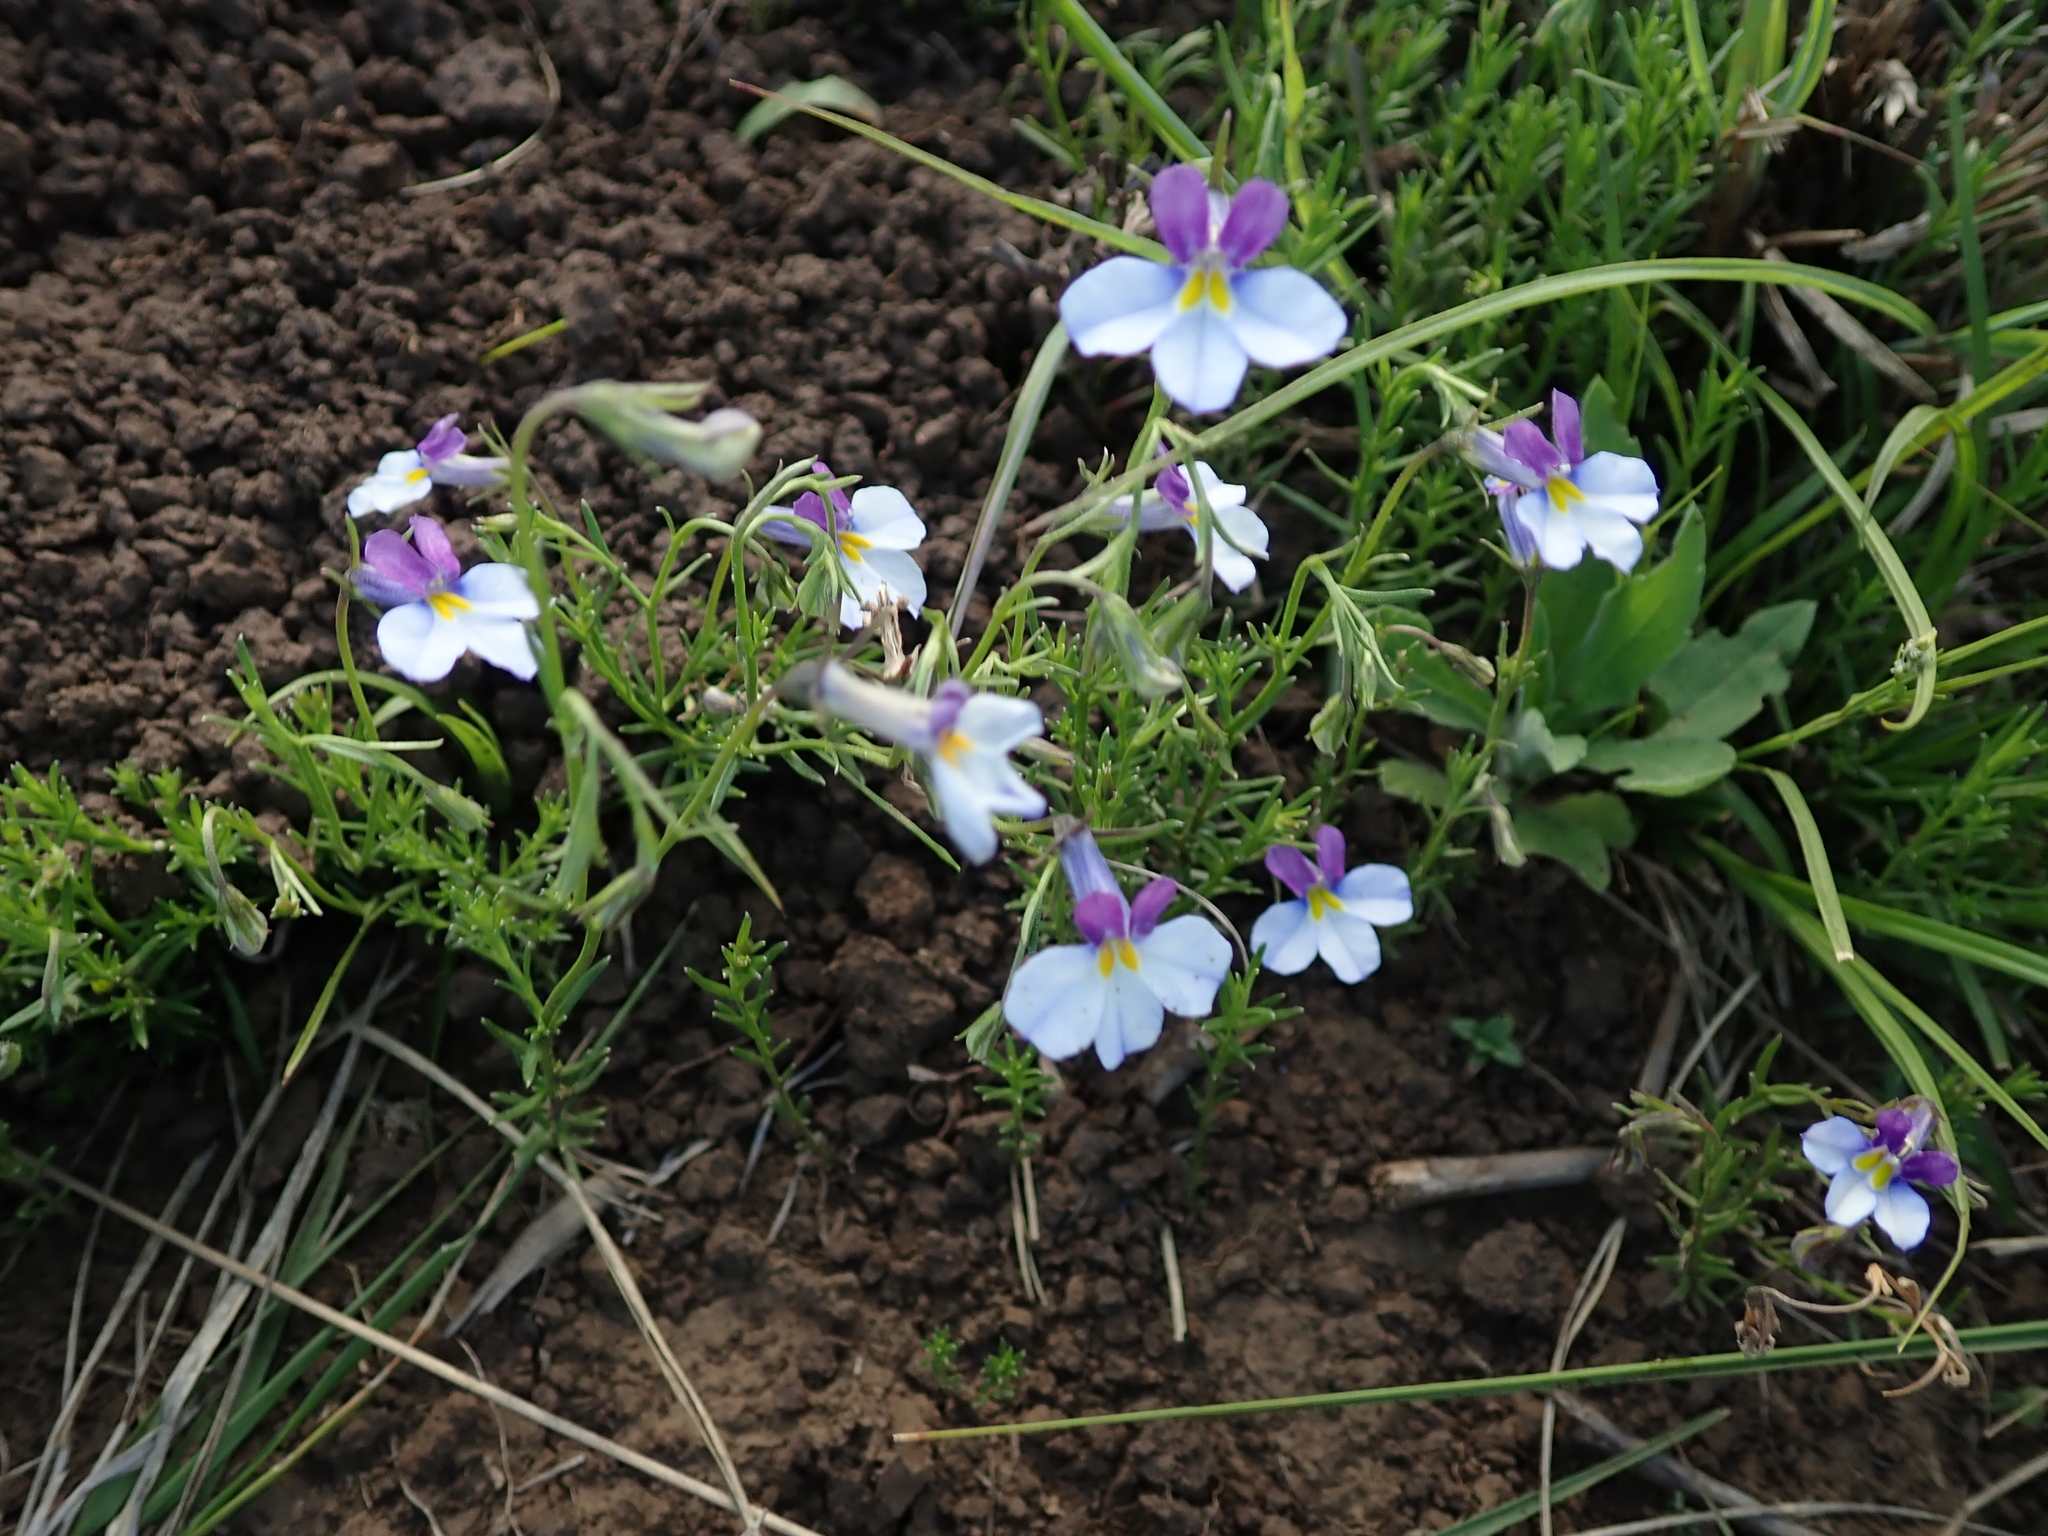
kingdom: Plantae
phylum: Tracheophyta
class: Magnoliopsida
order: Asterales
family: Campanulaceae
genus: Monopsis
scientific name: Monopsis decipiens
